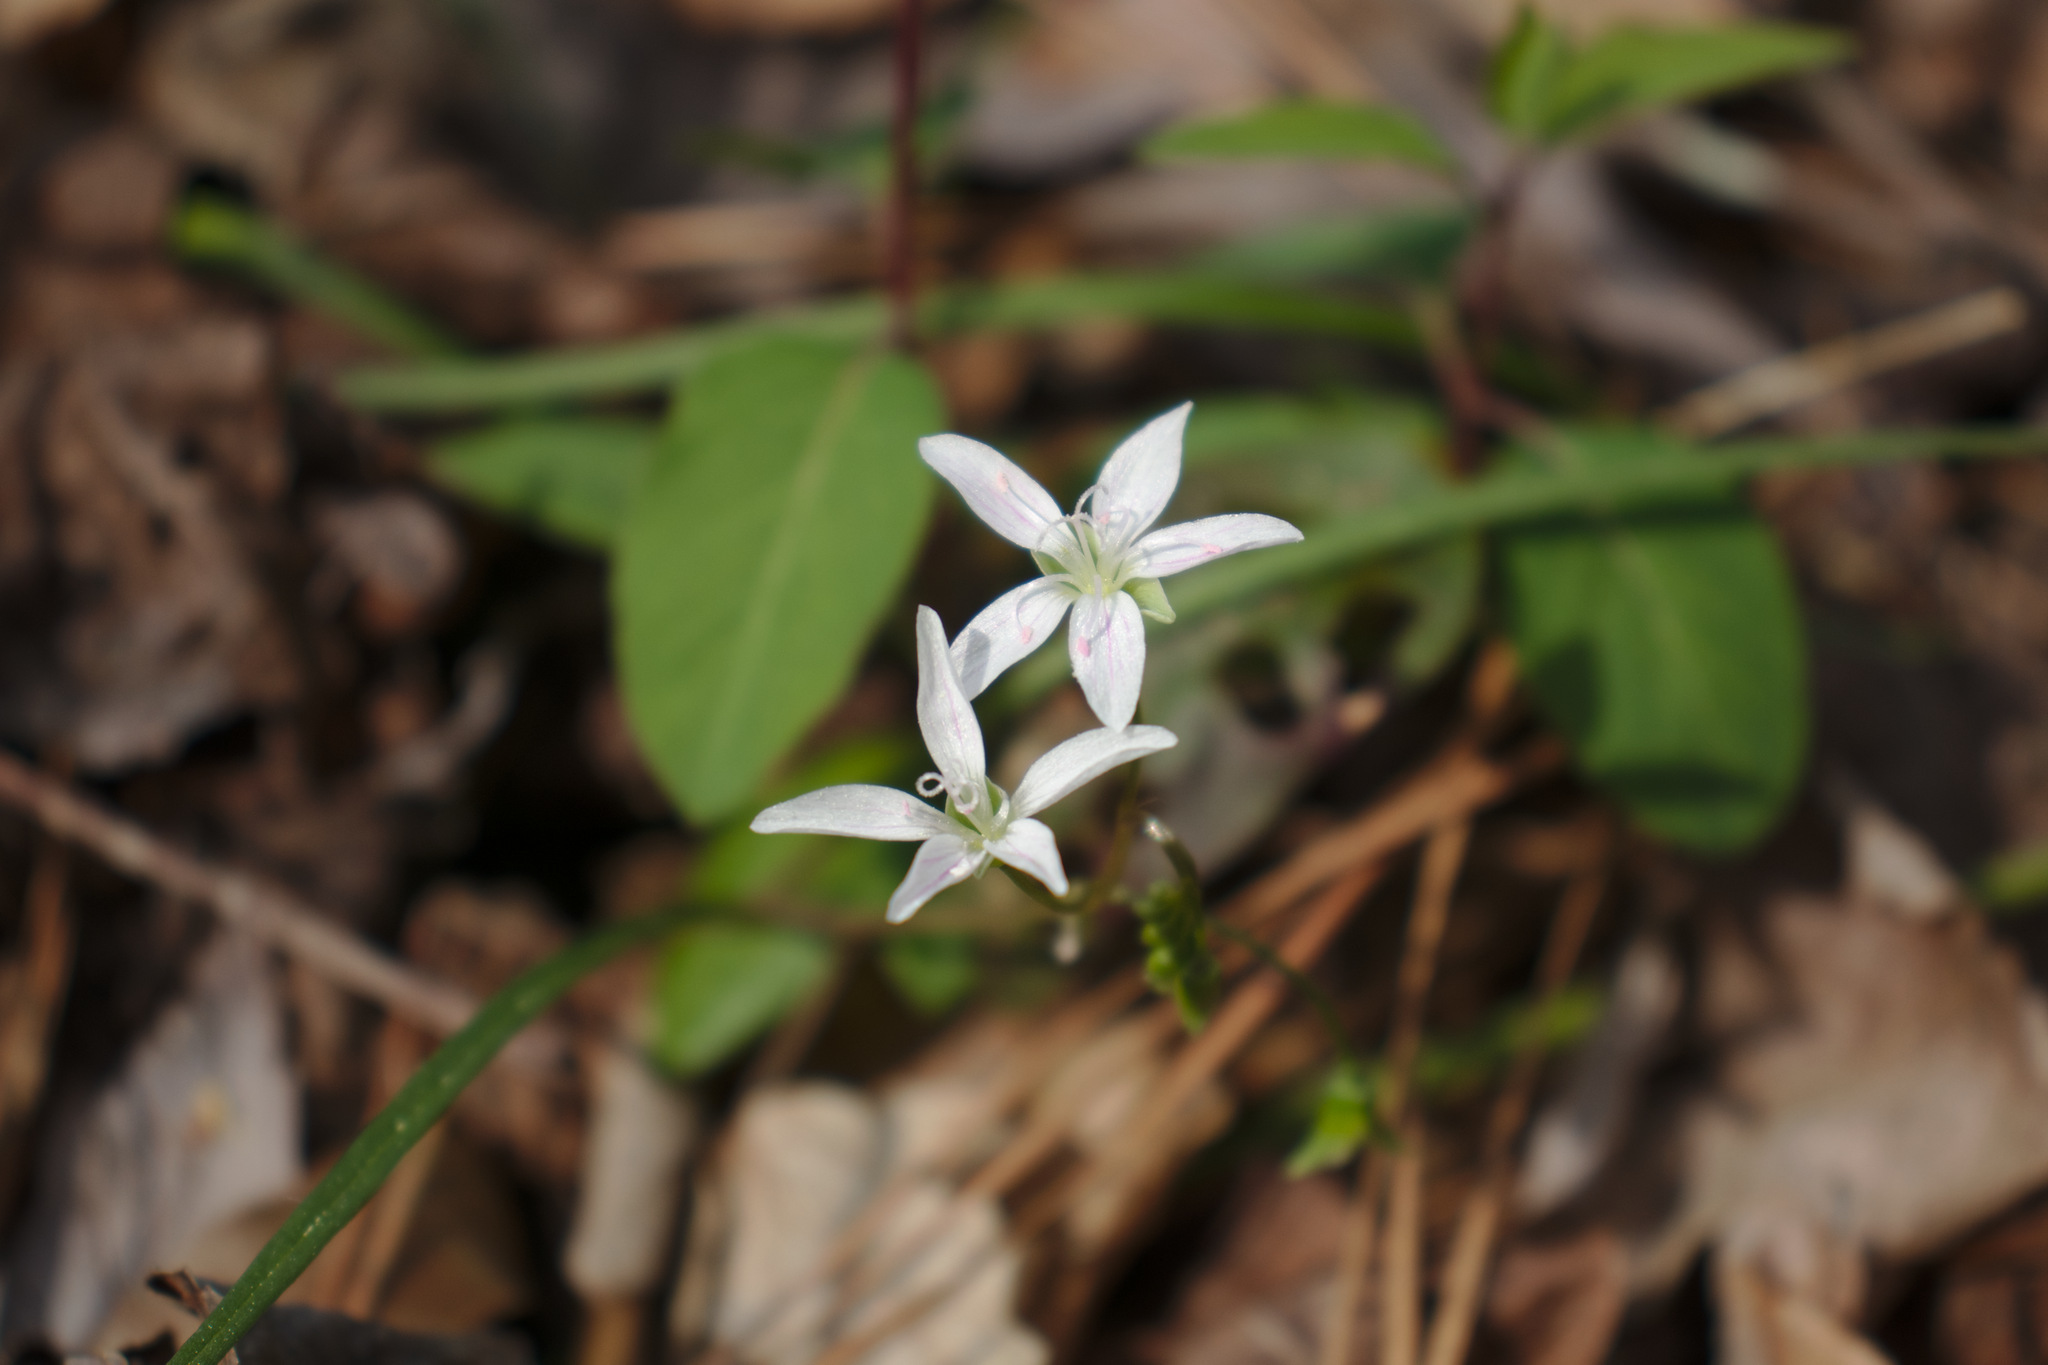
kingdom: Plantae
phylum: Tracheophyta
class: Magnoliopsida
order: Caryophyllales
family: Montiaceae
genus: Claytonia
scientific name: Claytonia virginica
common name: Virginia springbeauty
